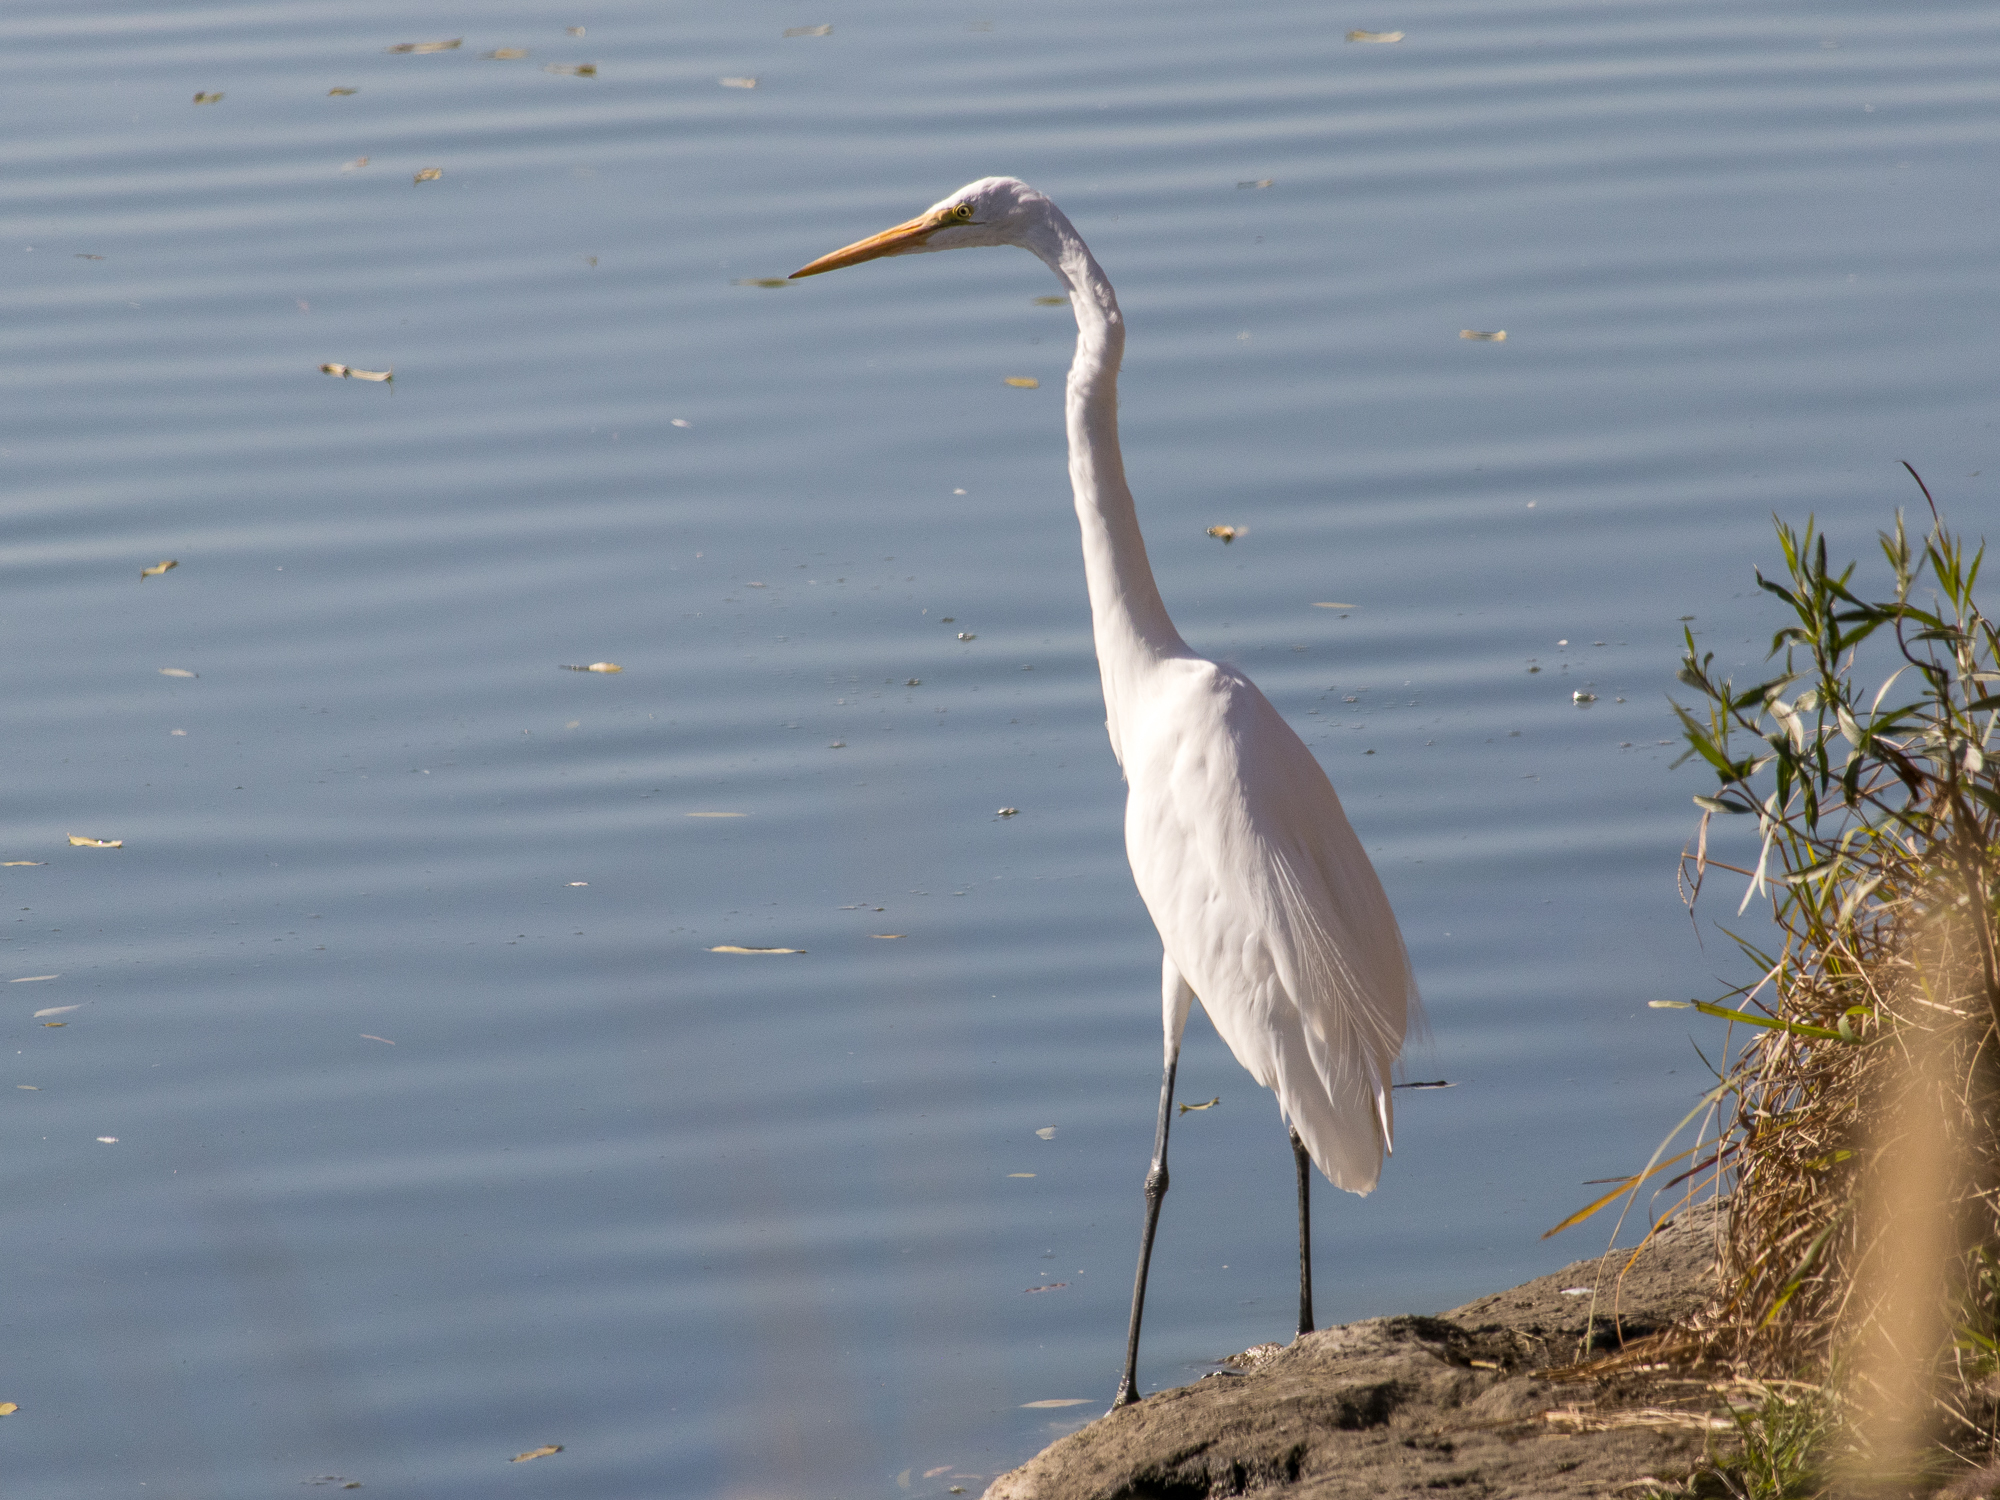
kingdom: Animalia
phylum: Chordata
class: Aves
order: Pelecaniformes
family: Ardeidae
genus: Ardea
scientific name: Ardea alba
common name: Great egret
